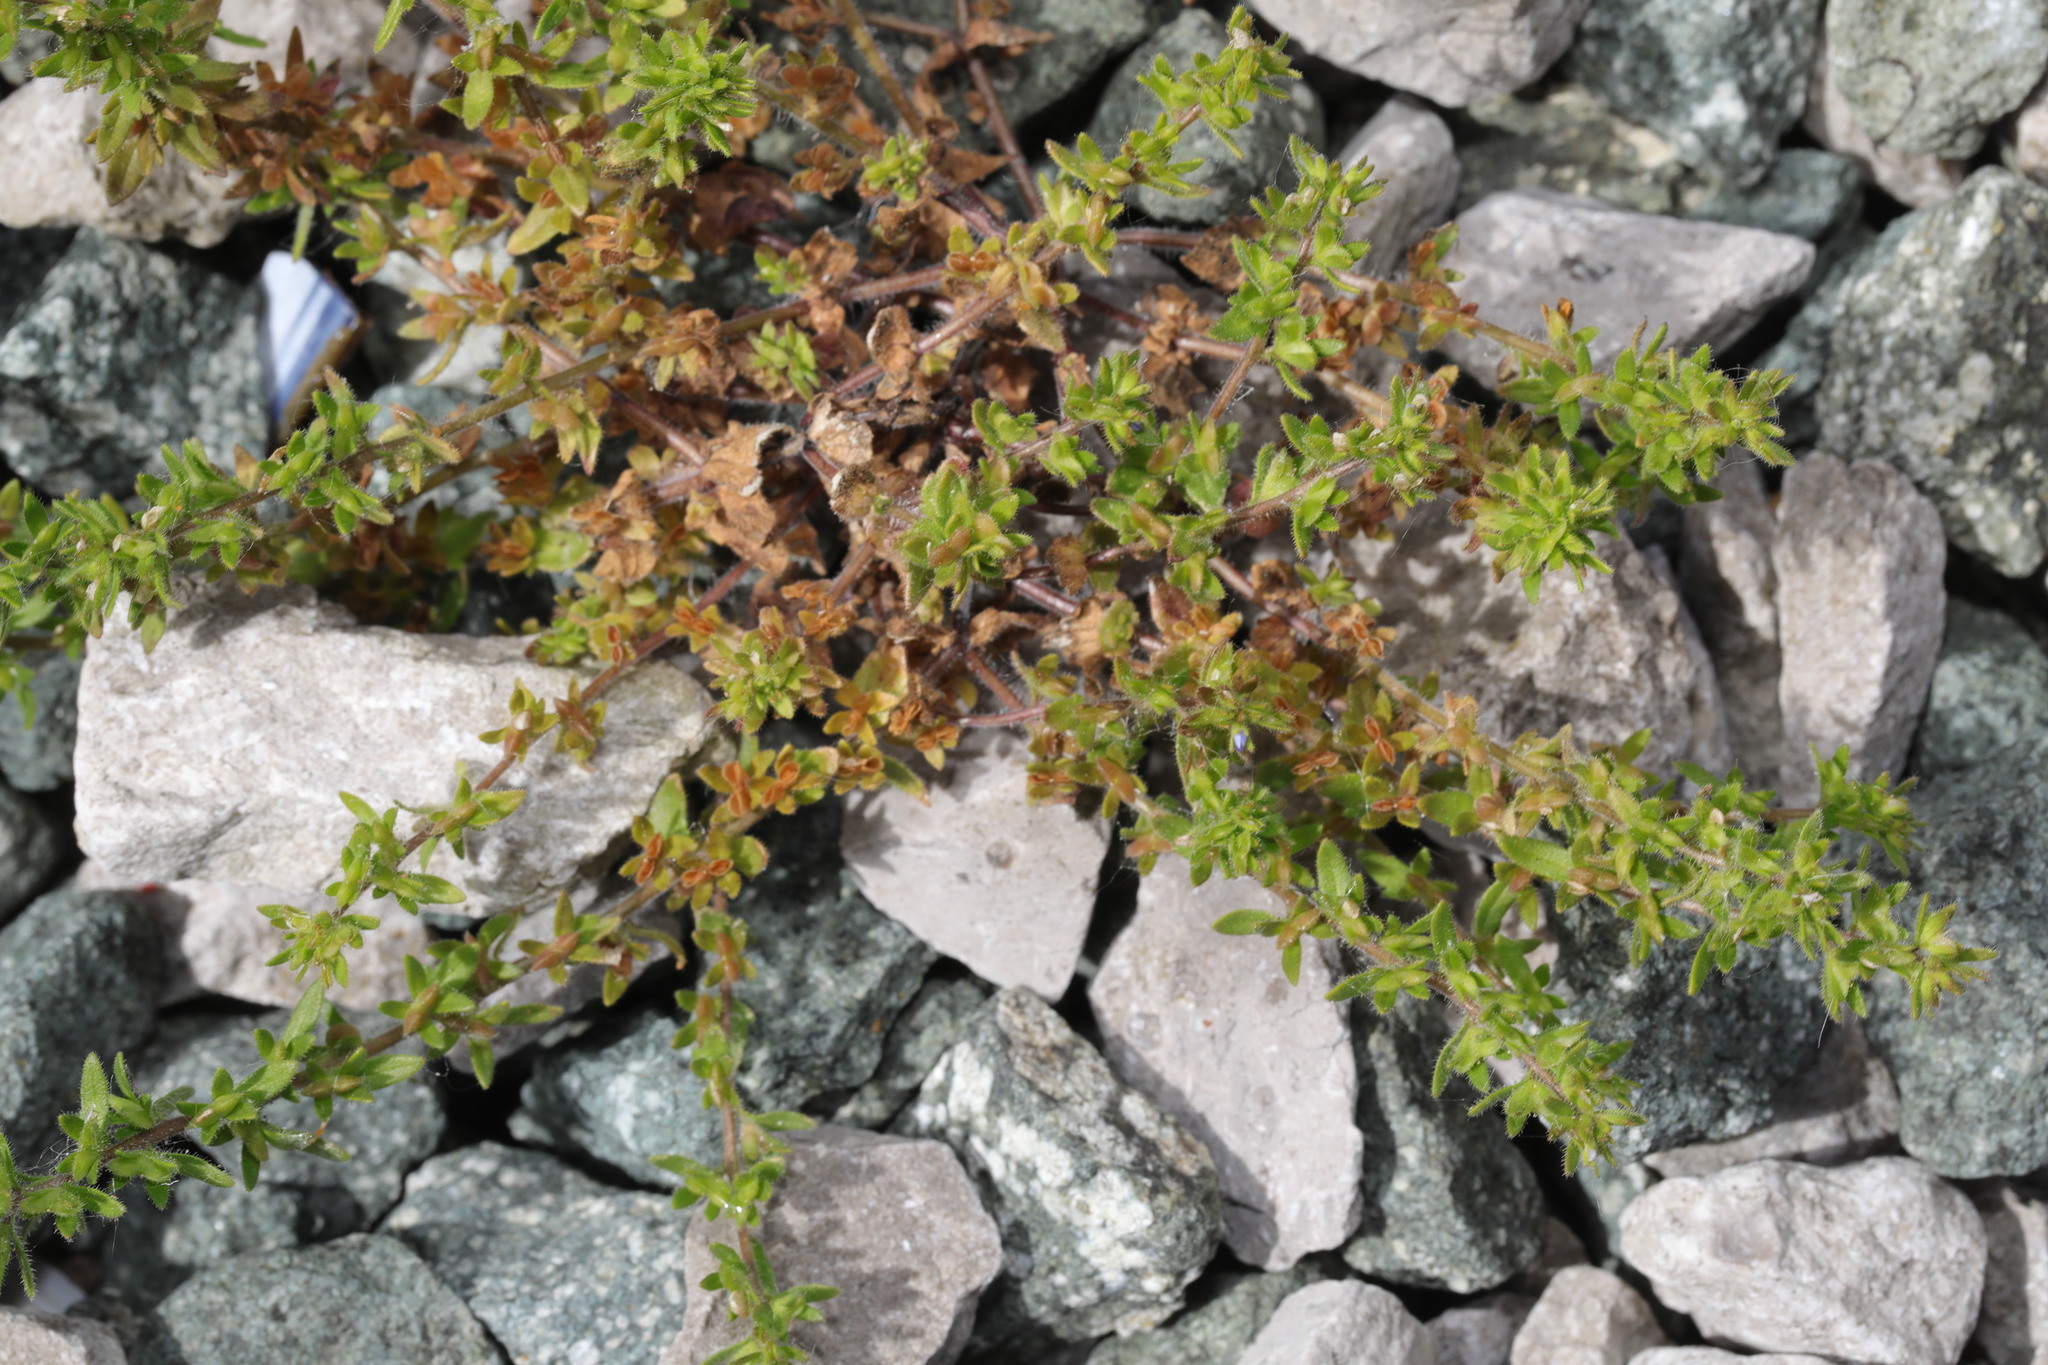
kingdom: Plantae
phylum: Tracheophyta
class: Magnoliopsida
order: Lamiales
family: Plantaginaceae
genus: Veronica
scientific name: Veronica arvensis
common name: Corn speedwell
